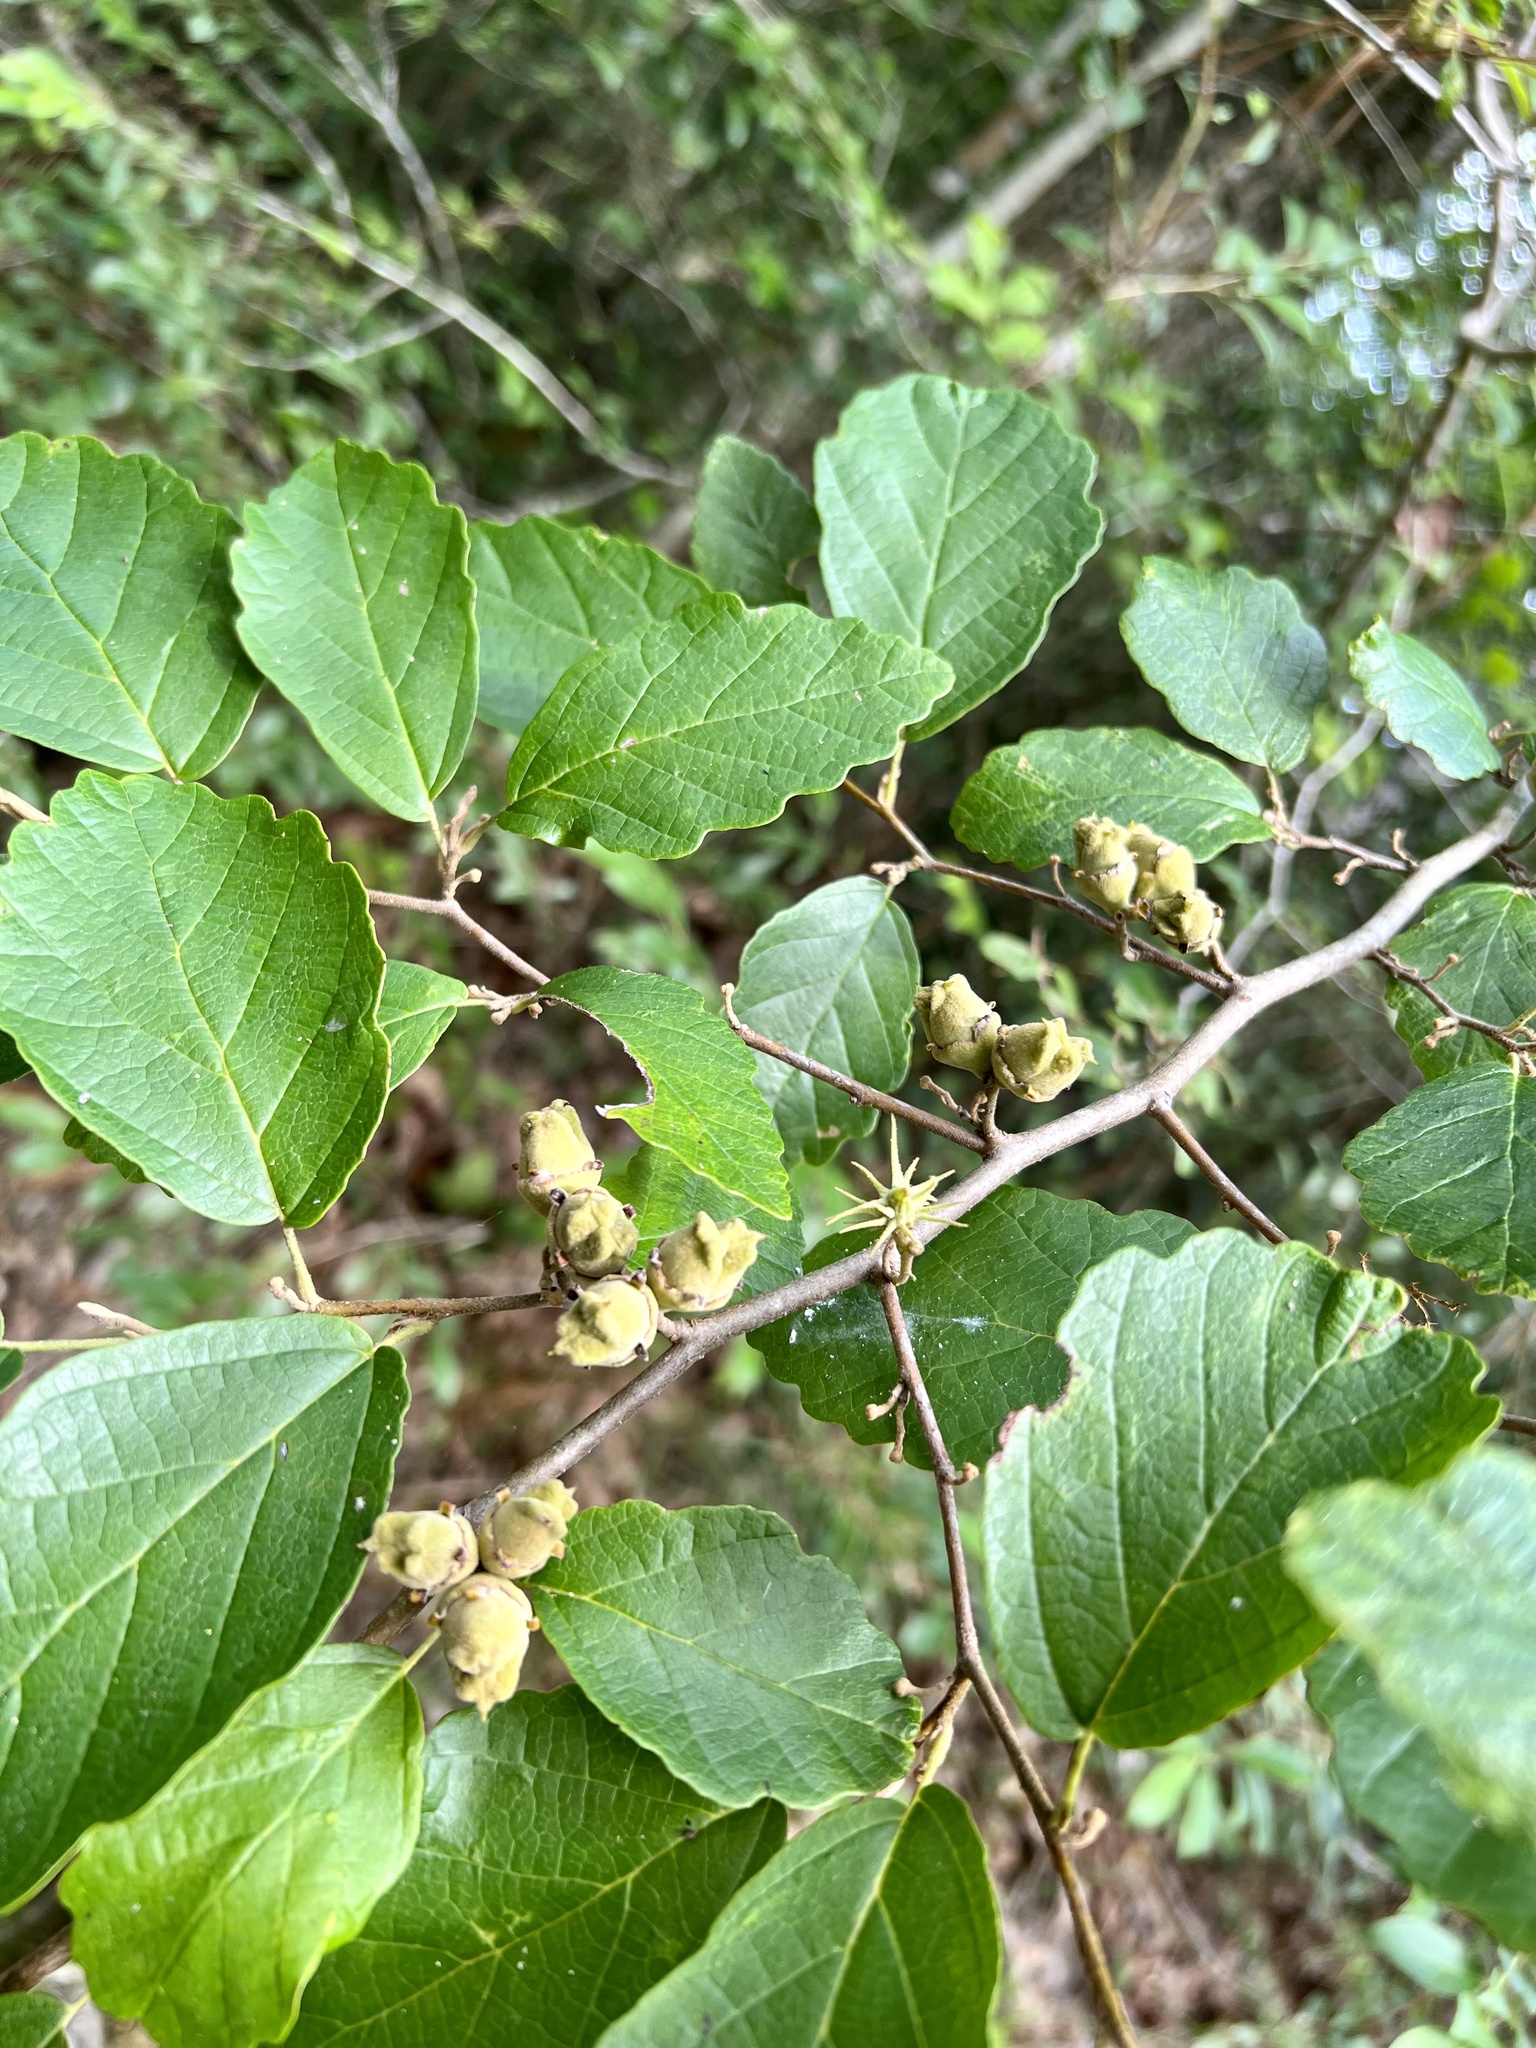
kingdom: Plantae
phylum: Tracheophyta
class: Magnoliopsida
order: Saxifragales
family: Hamamelidaceae
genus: Hamamelis
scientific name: Hamamelis virginiana
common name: Witch-hazel
